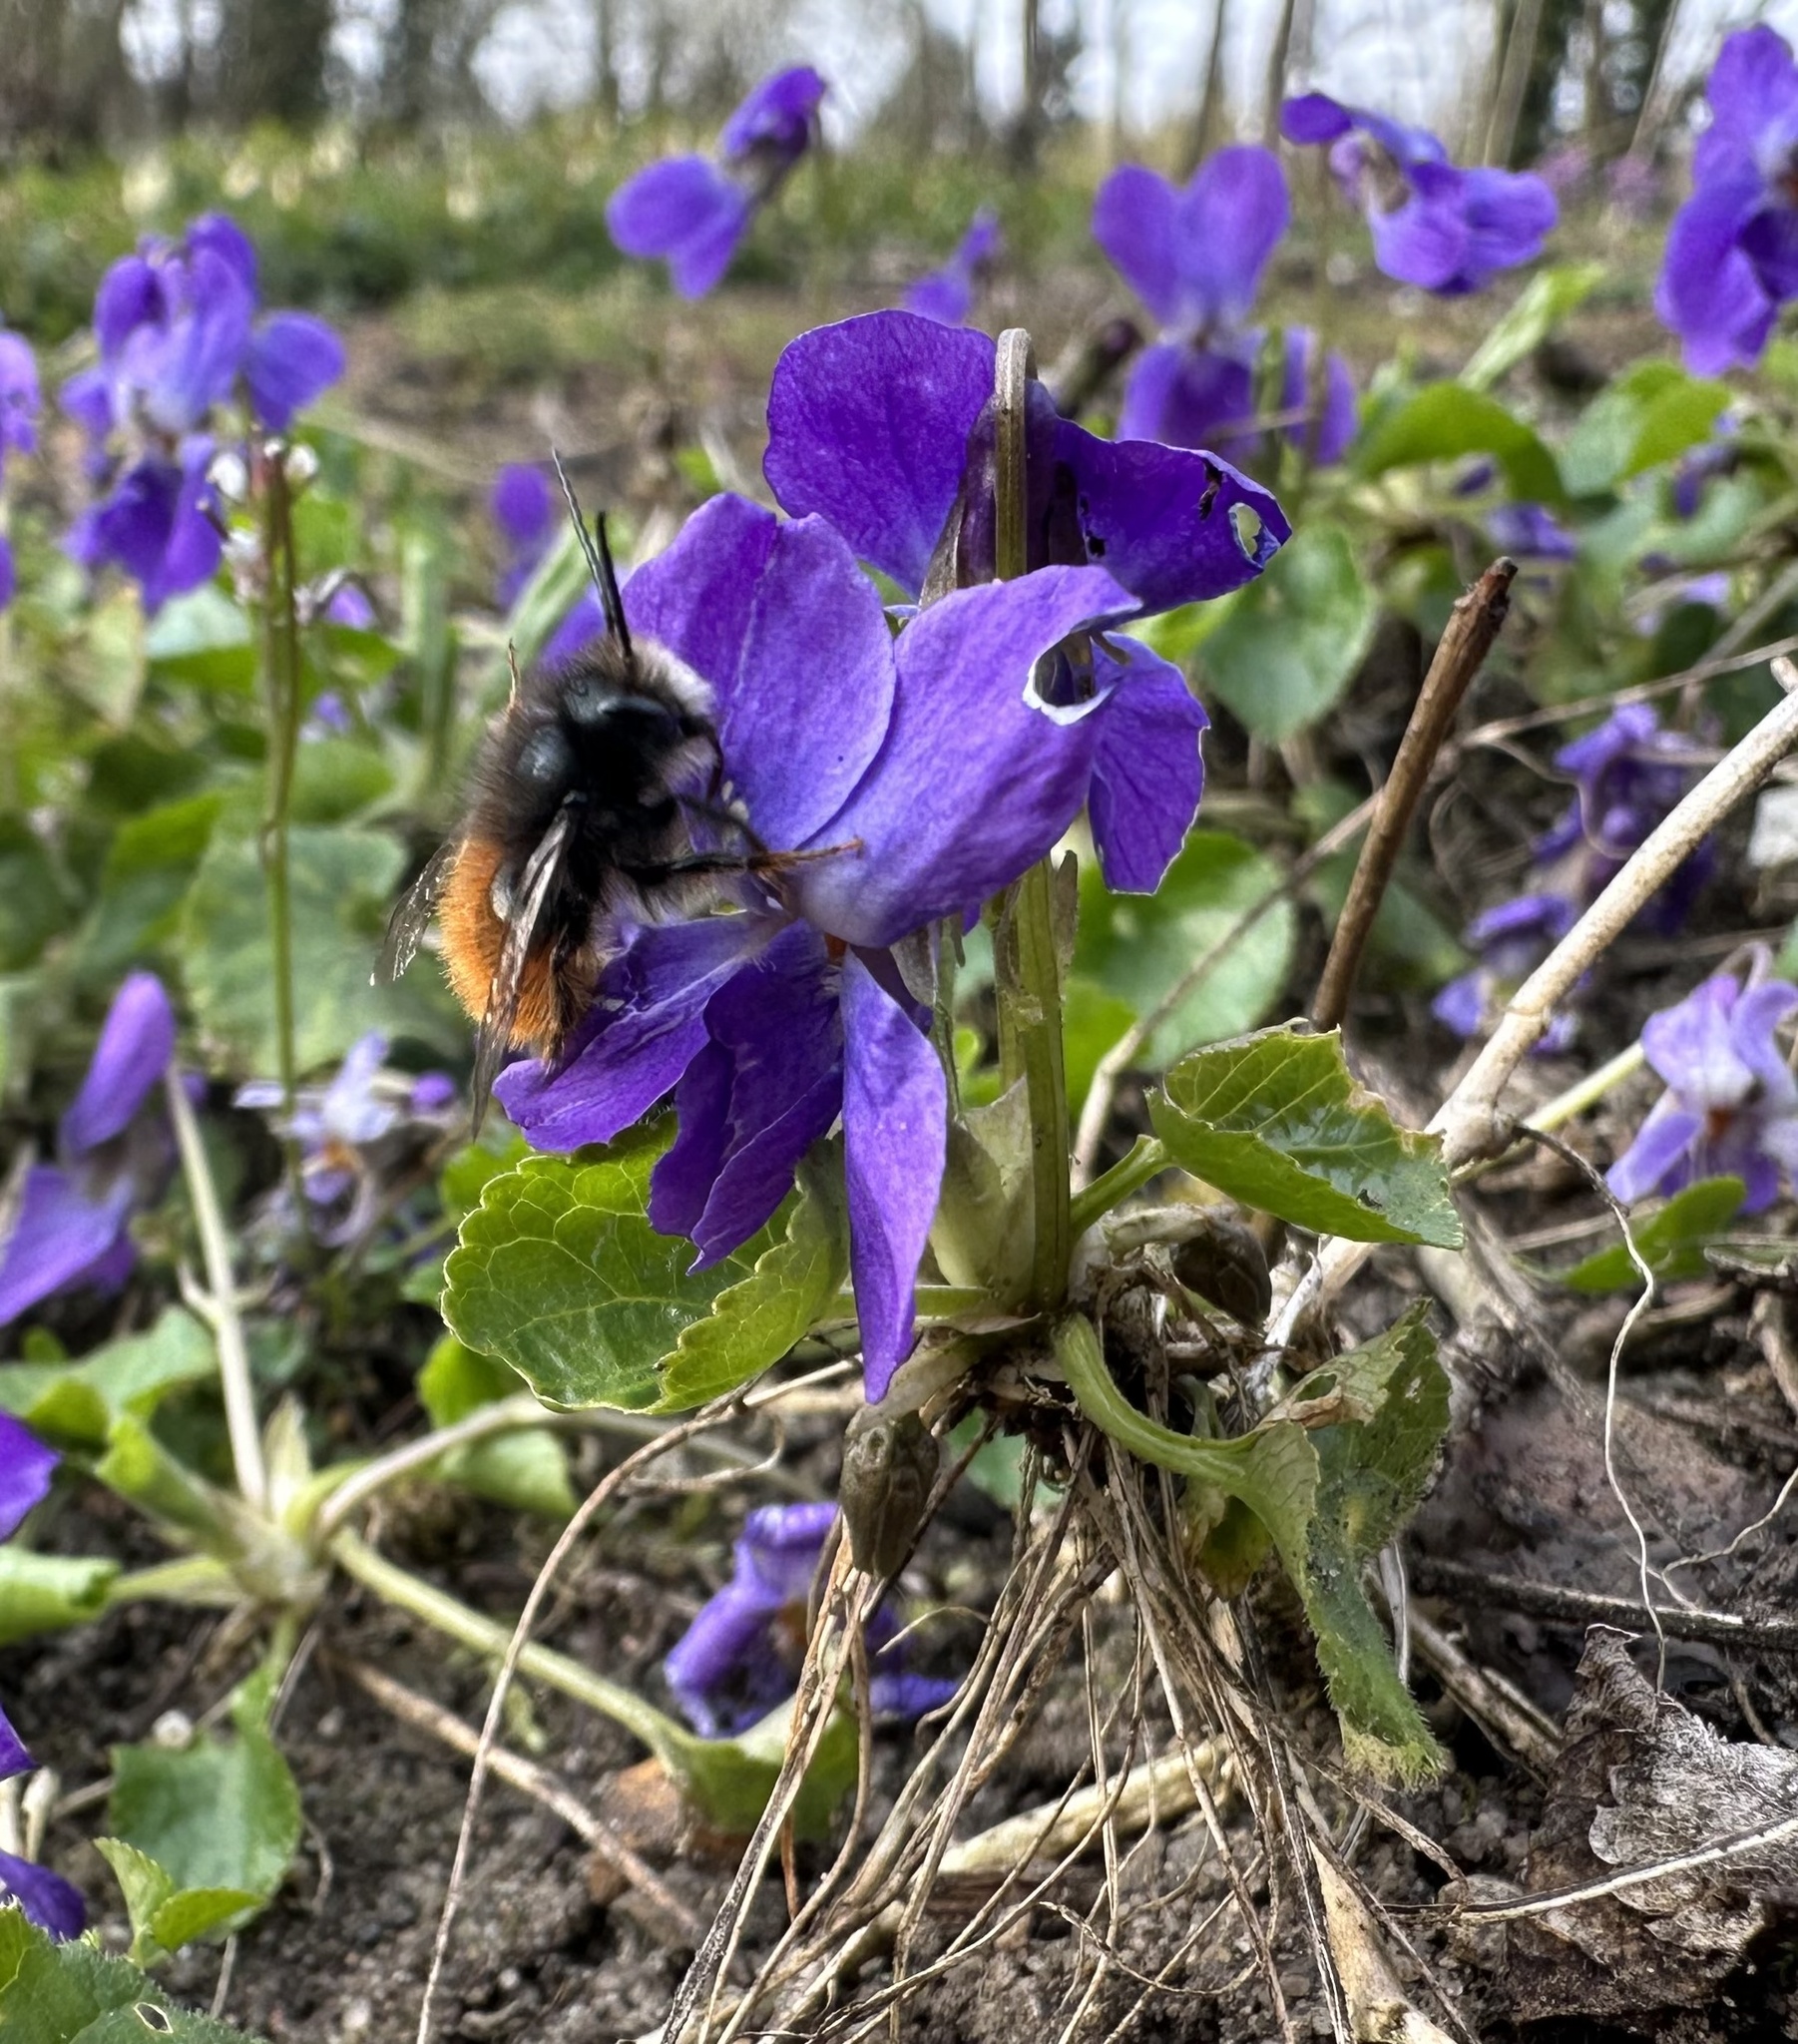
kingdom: Animalia
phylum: Arthropoda
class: Insecta
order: Hymenoptera
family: Megachilidae
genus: Osmia
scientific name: Osmia cornuta
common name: Mason bee
